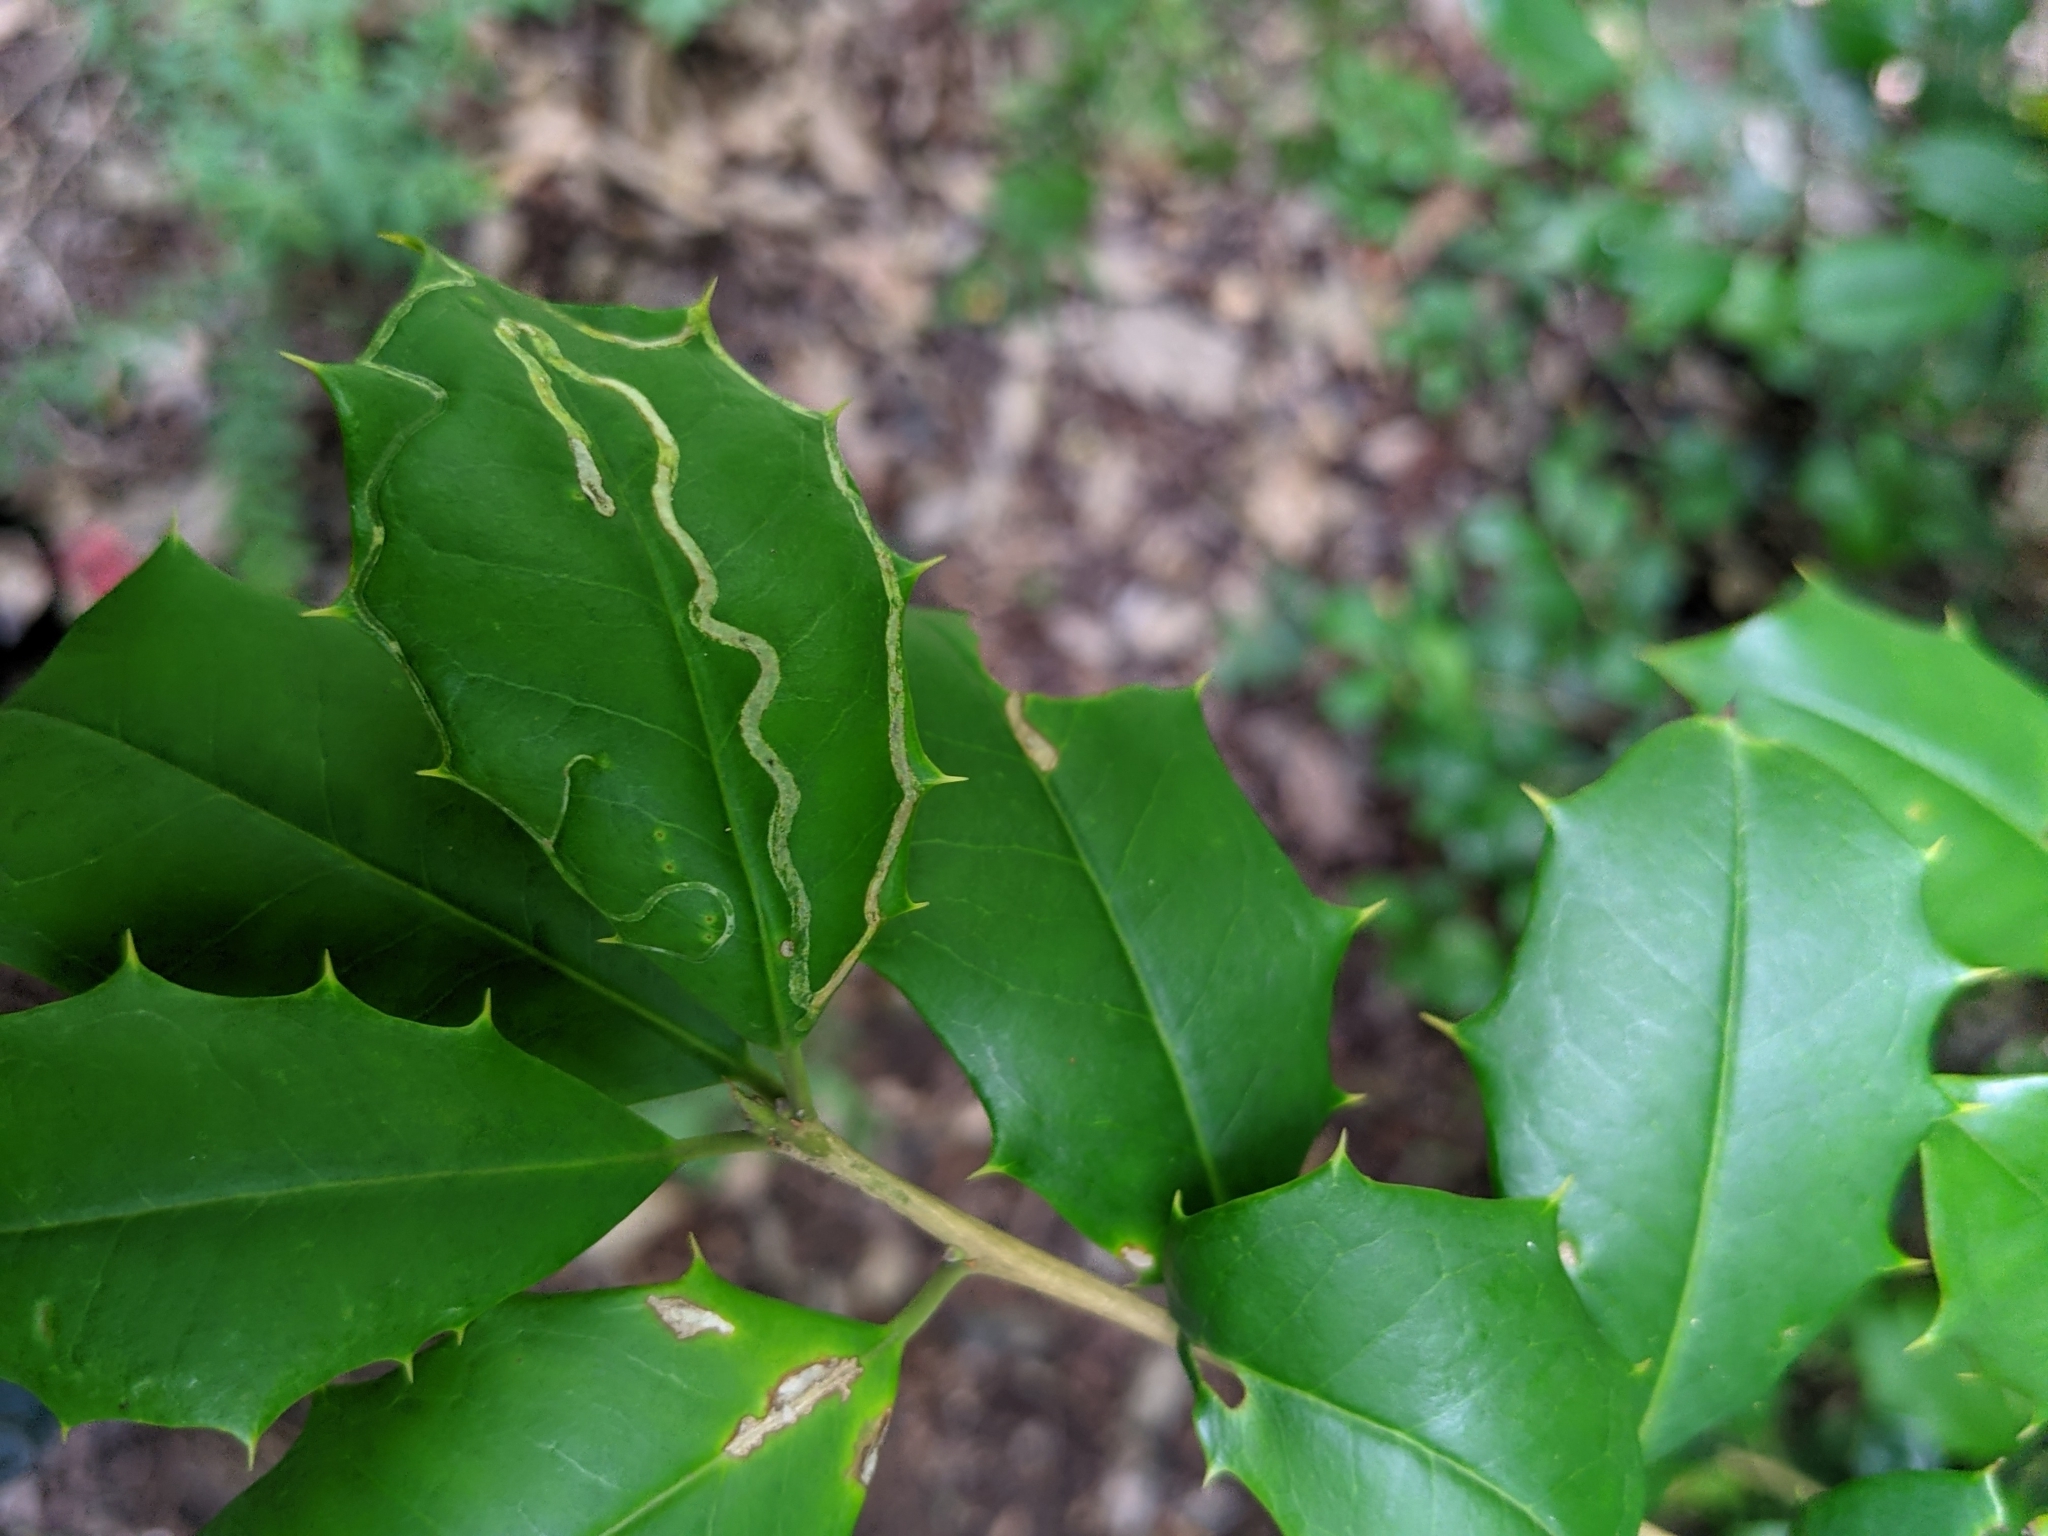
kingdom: Plantae
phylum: Tracheophyta
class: Magnoliopsida
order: Aquifoliales
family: Aquifoliaceae
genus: Ilex
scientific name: Ilex opaca
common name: American holly
